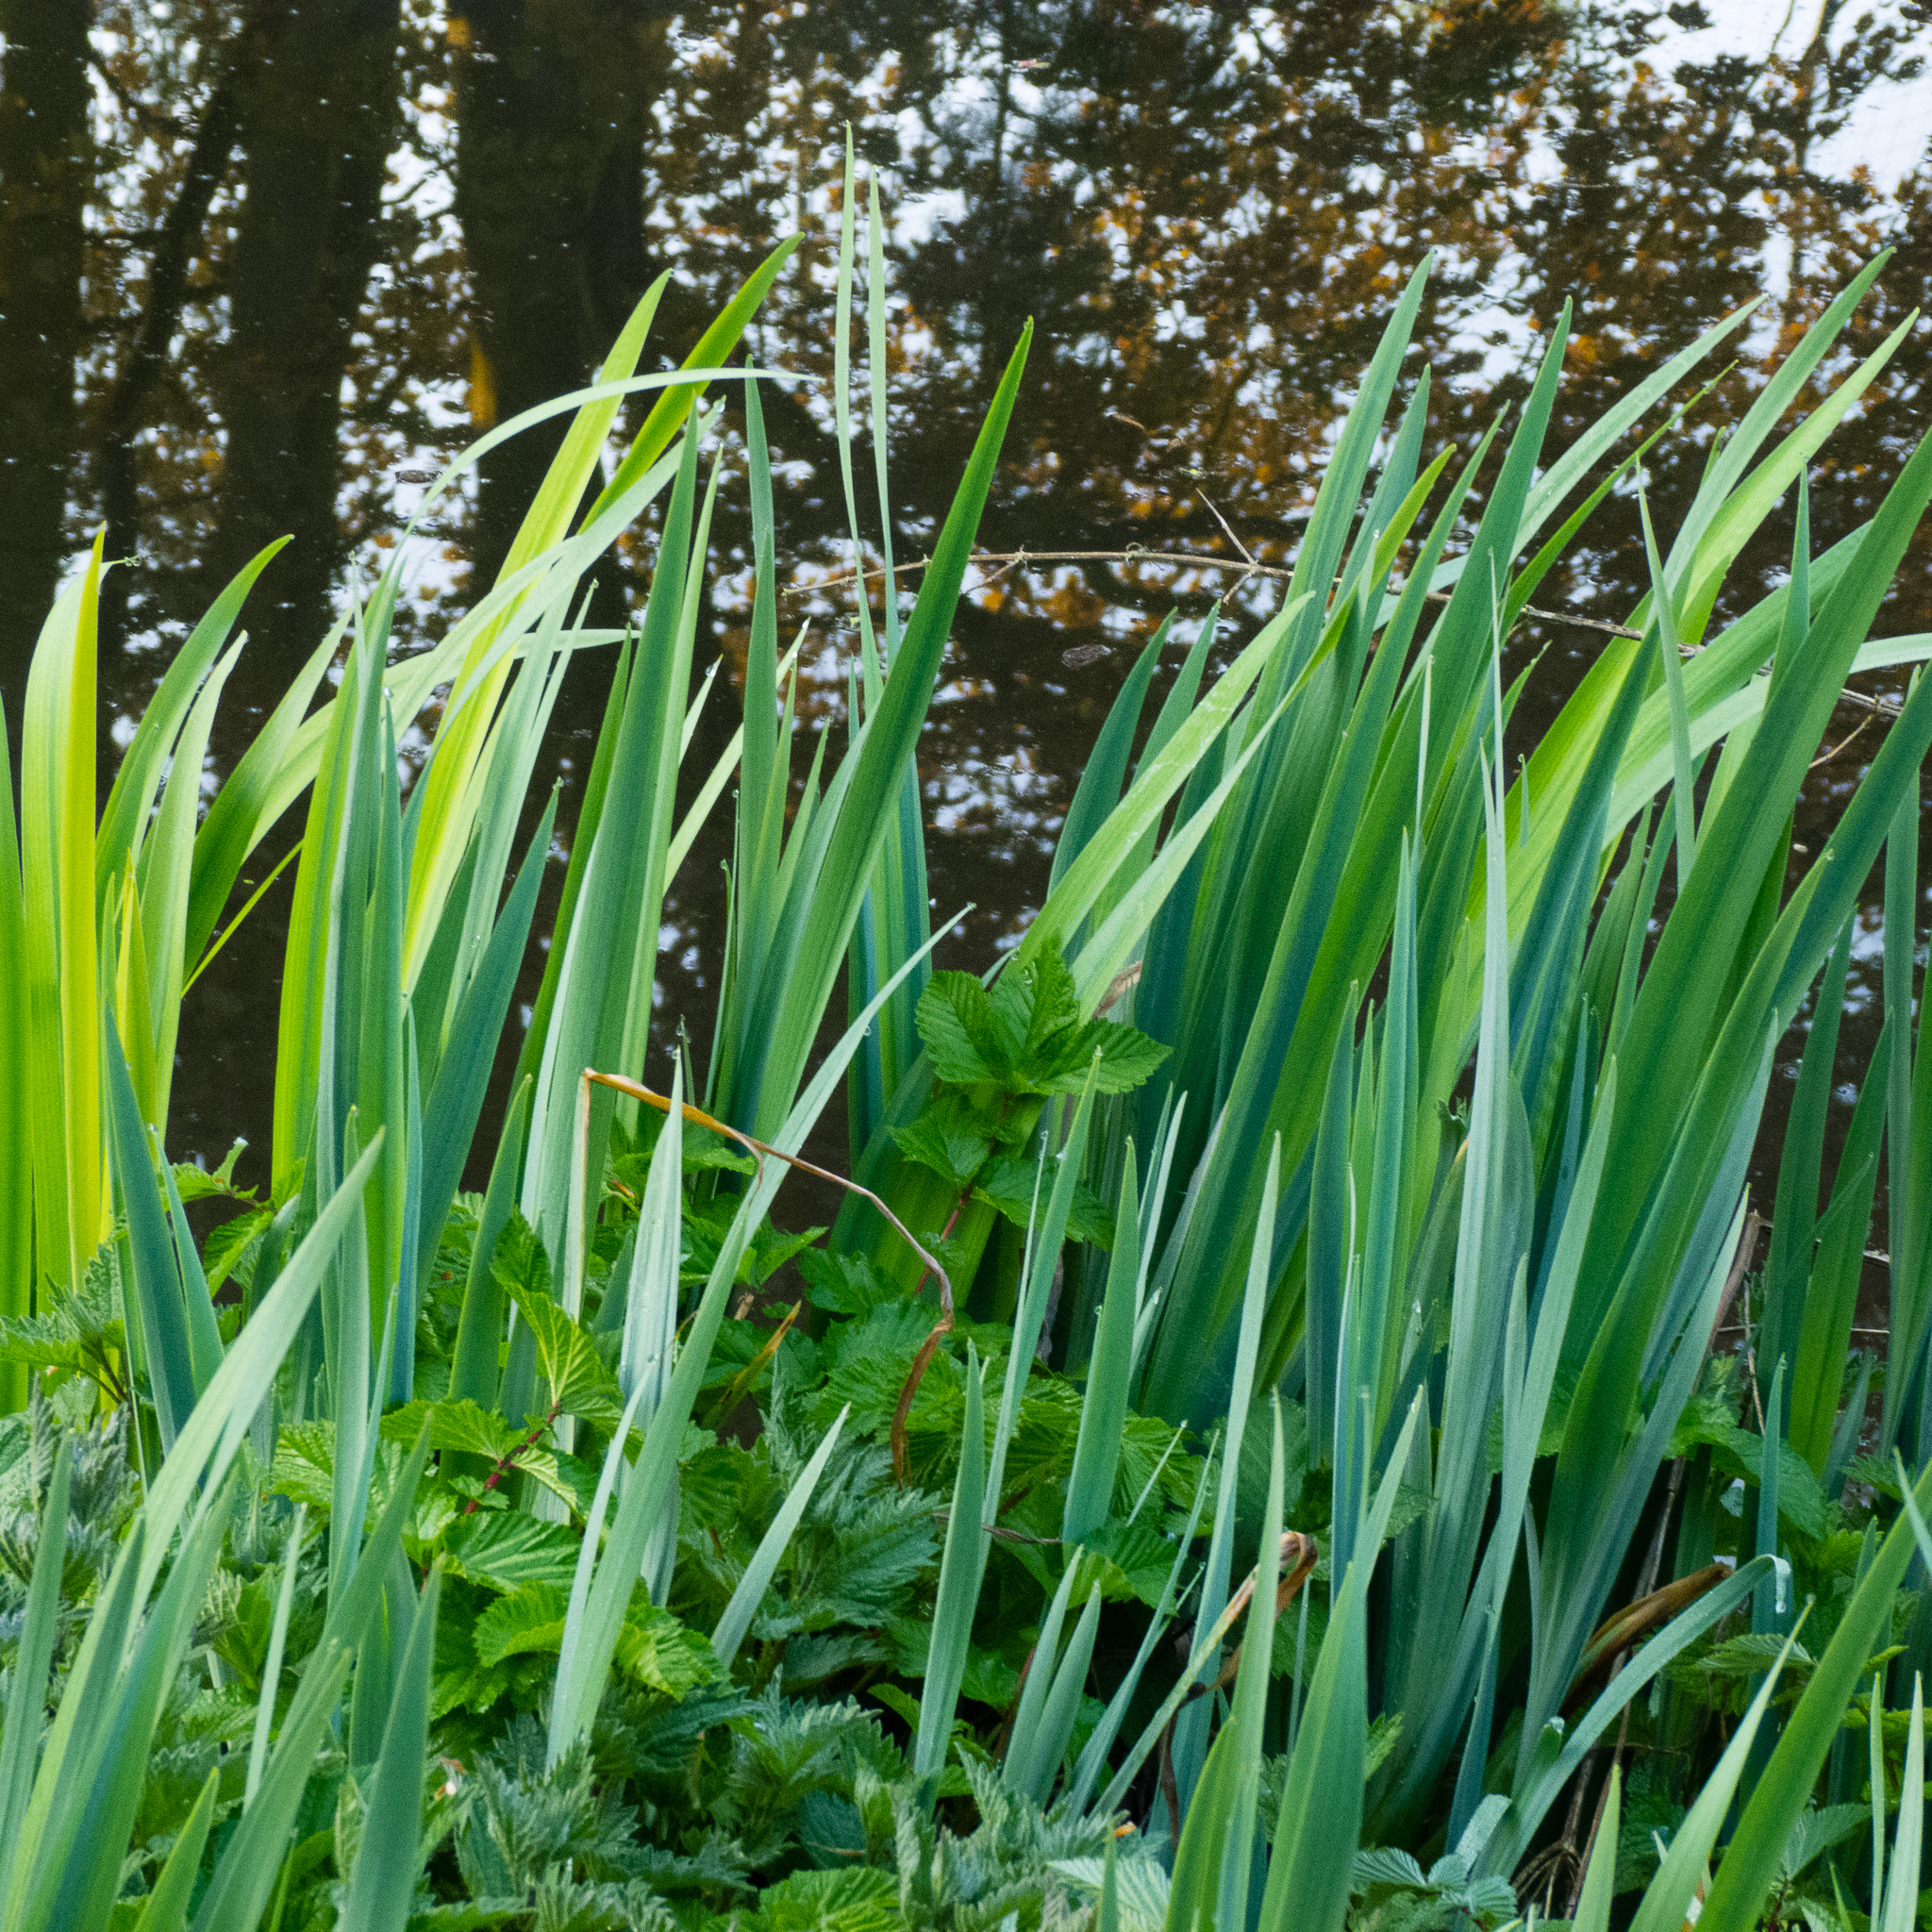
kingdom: Plantae
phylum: Tracheophyta
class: Liliopsida
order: Asparagales
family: Iridaceae
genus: Iris
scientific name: Iris pseudacorus
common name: Yellow flag
